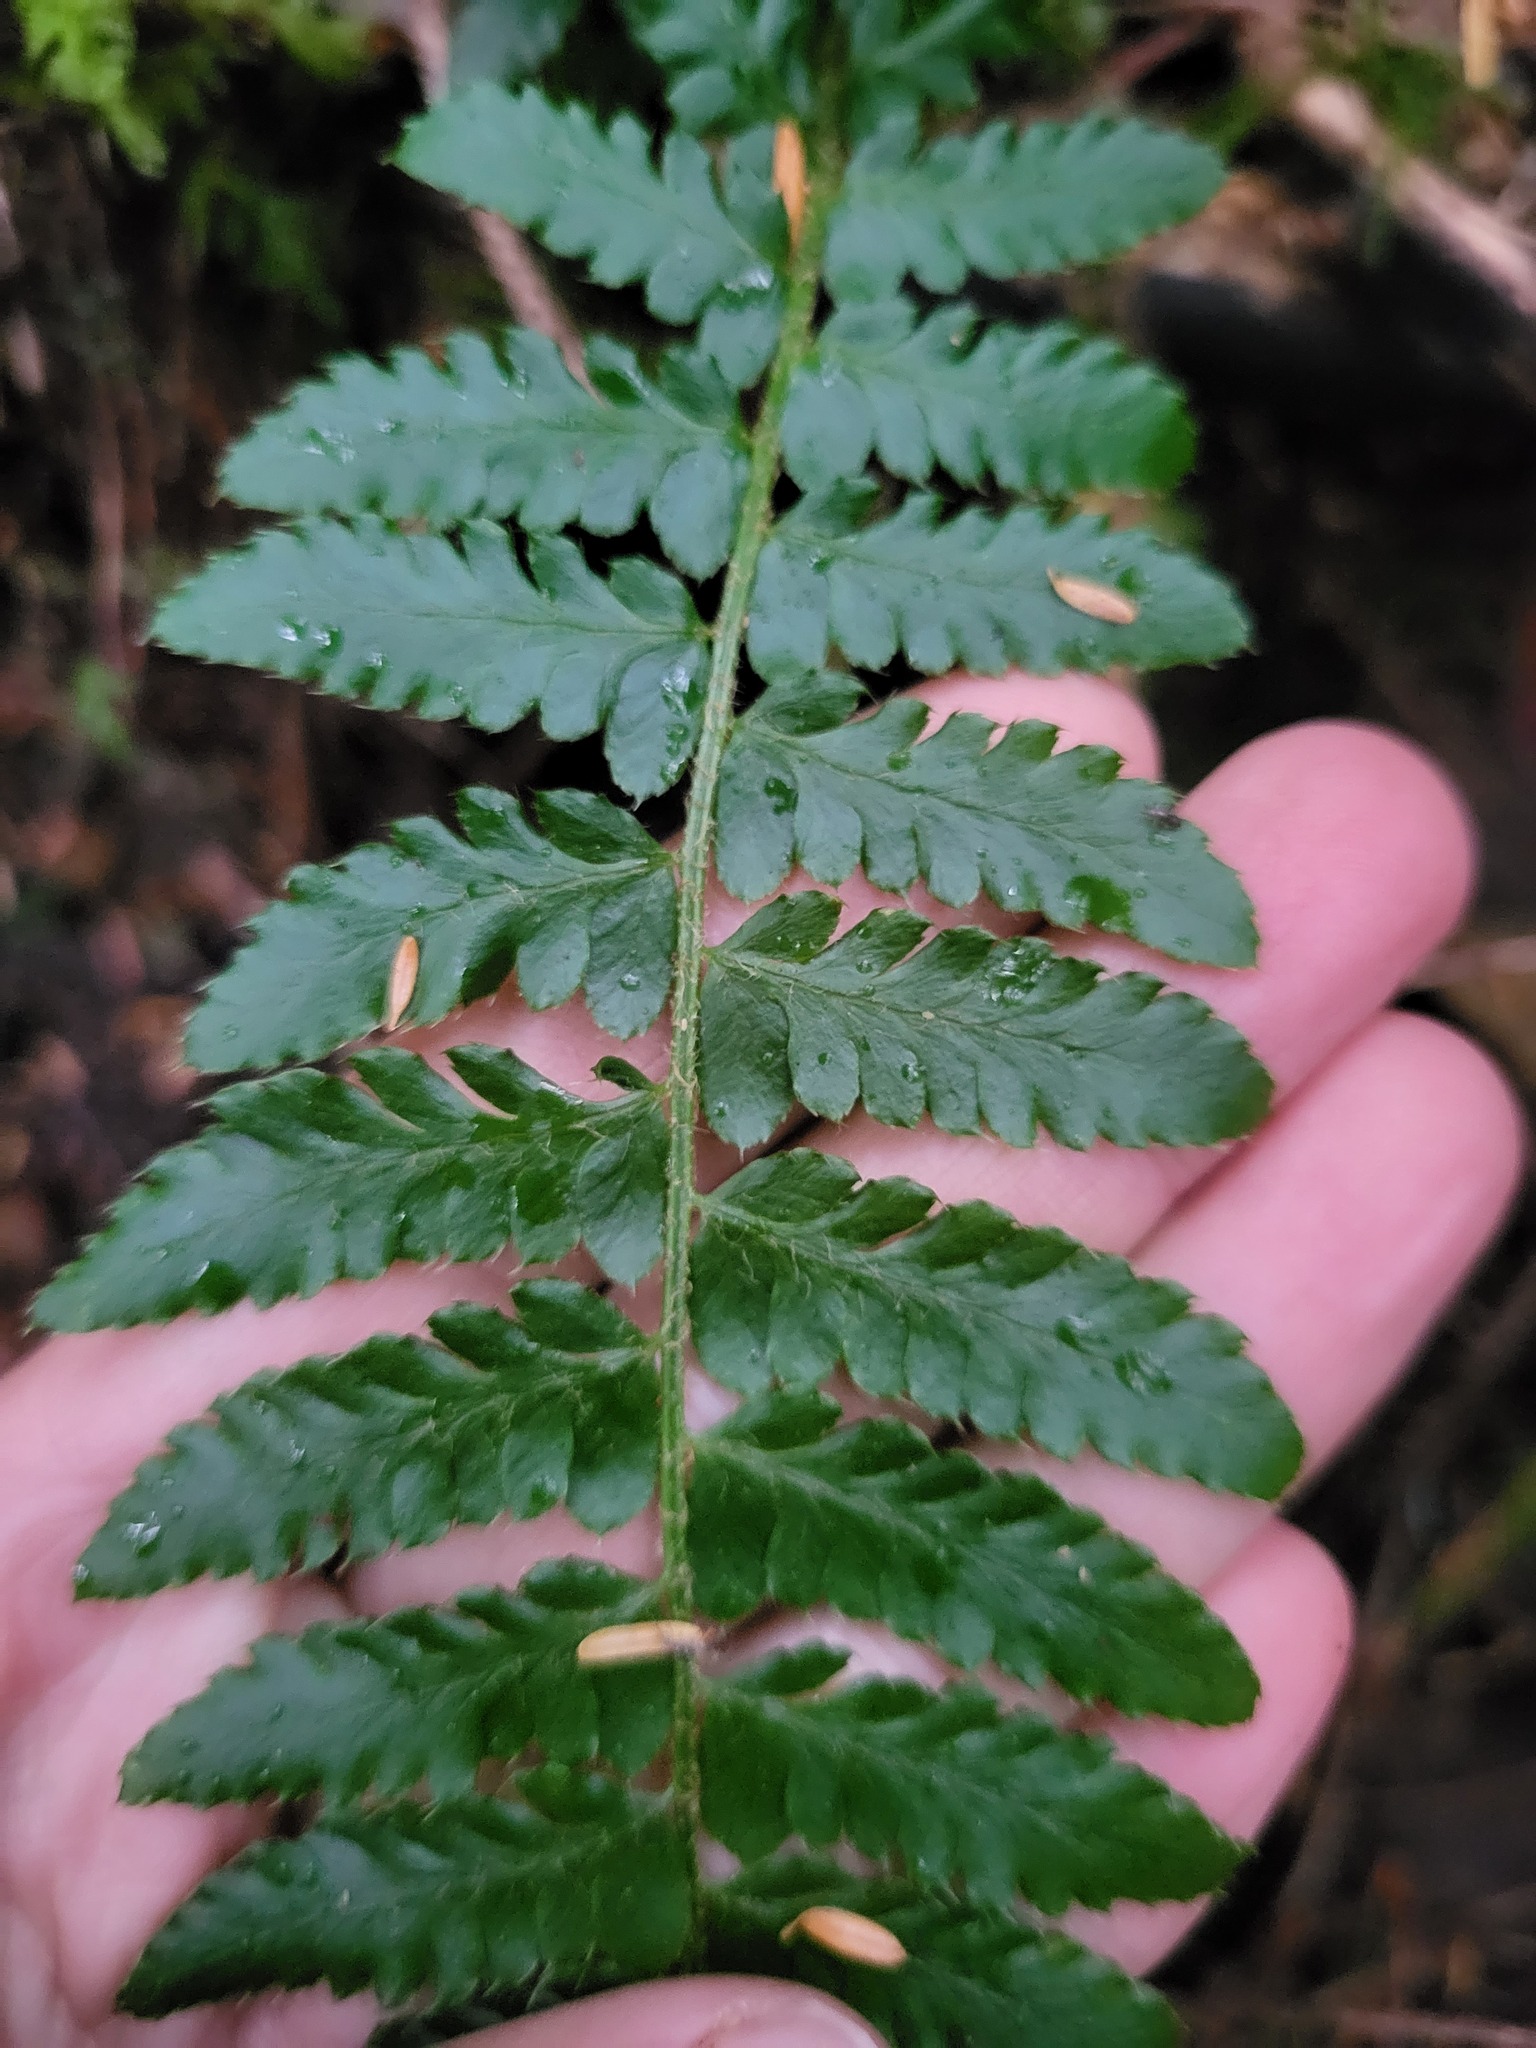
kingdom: Plantae
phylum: Tracheophyta
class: Polypodiopsida
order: Polypodiales
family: Dryopteridaceae
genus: Polystichum
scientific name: Polystichum setigerum
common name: Alaska holly fern
